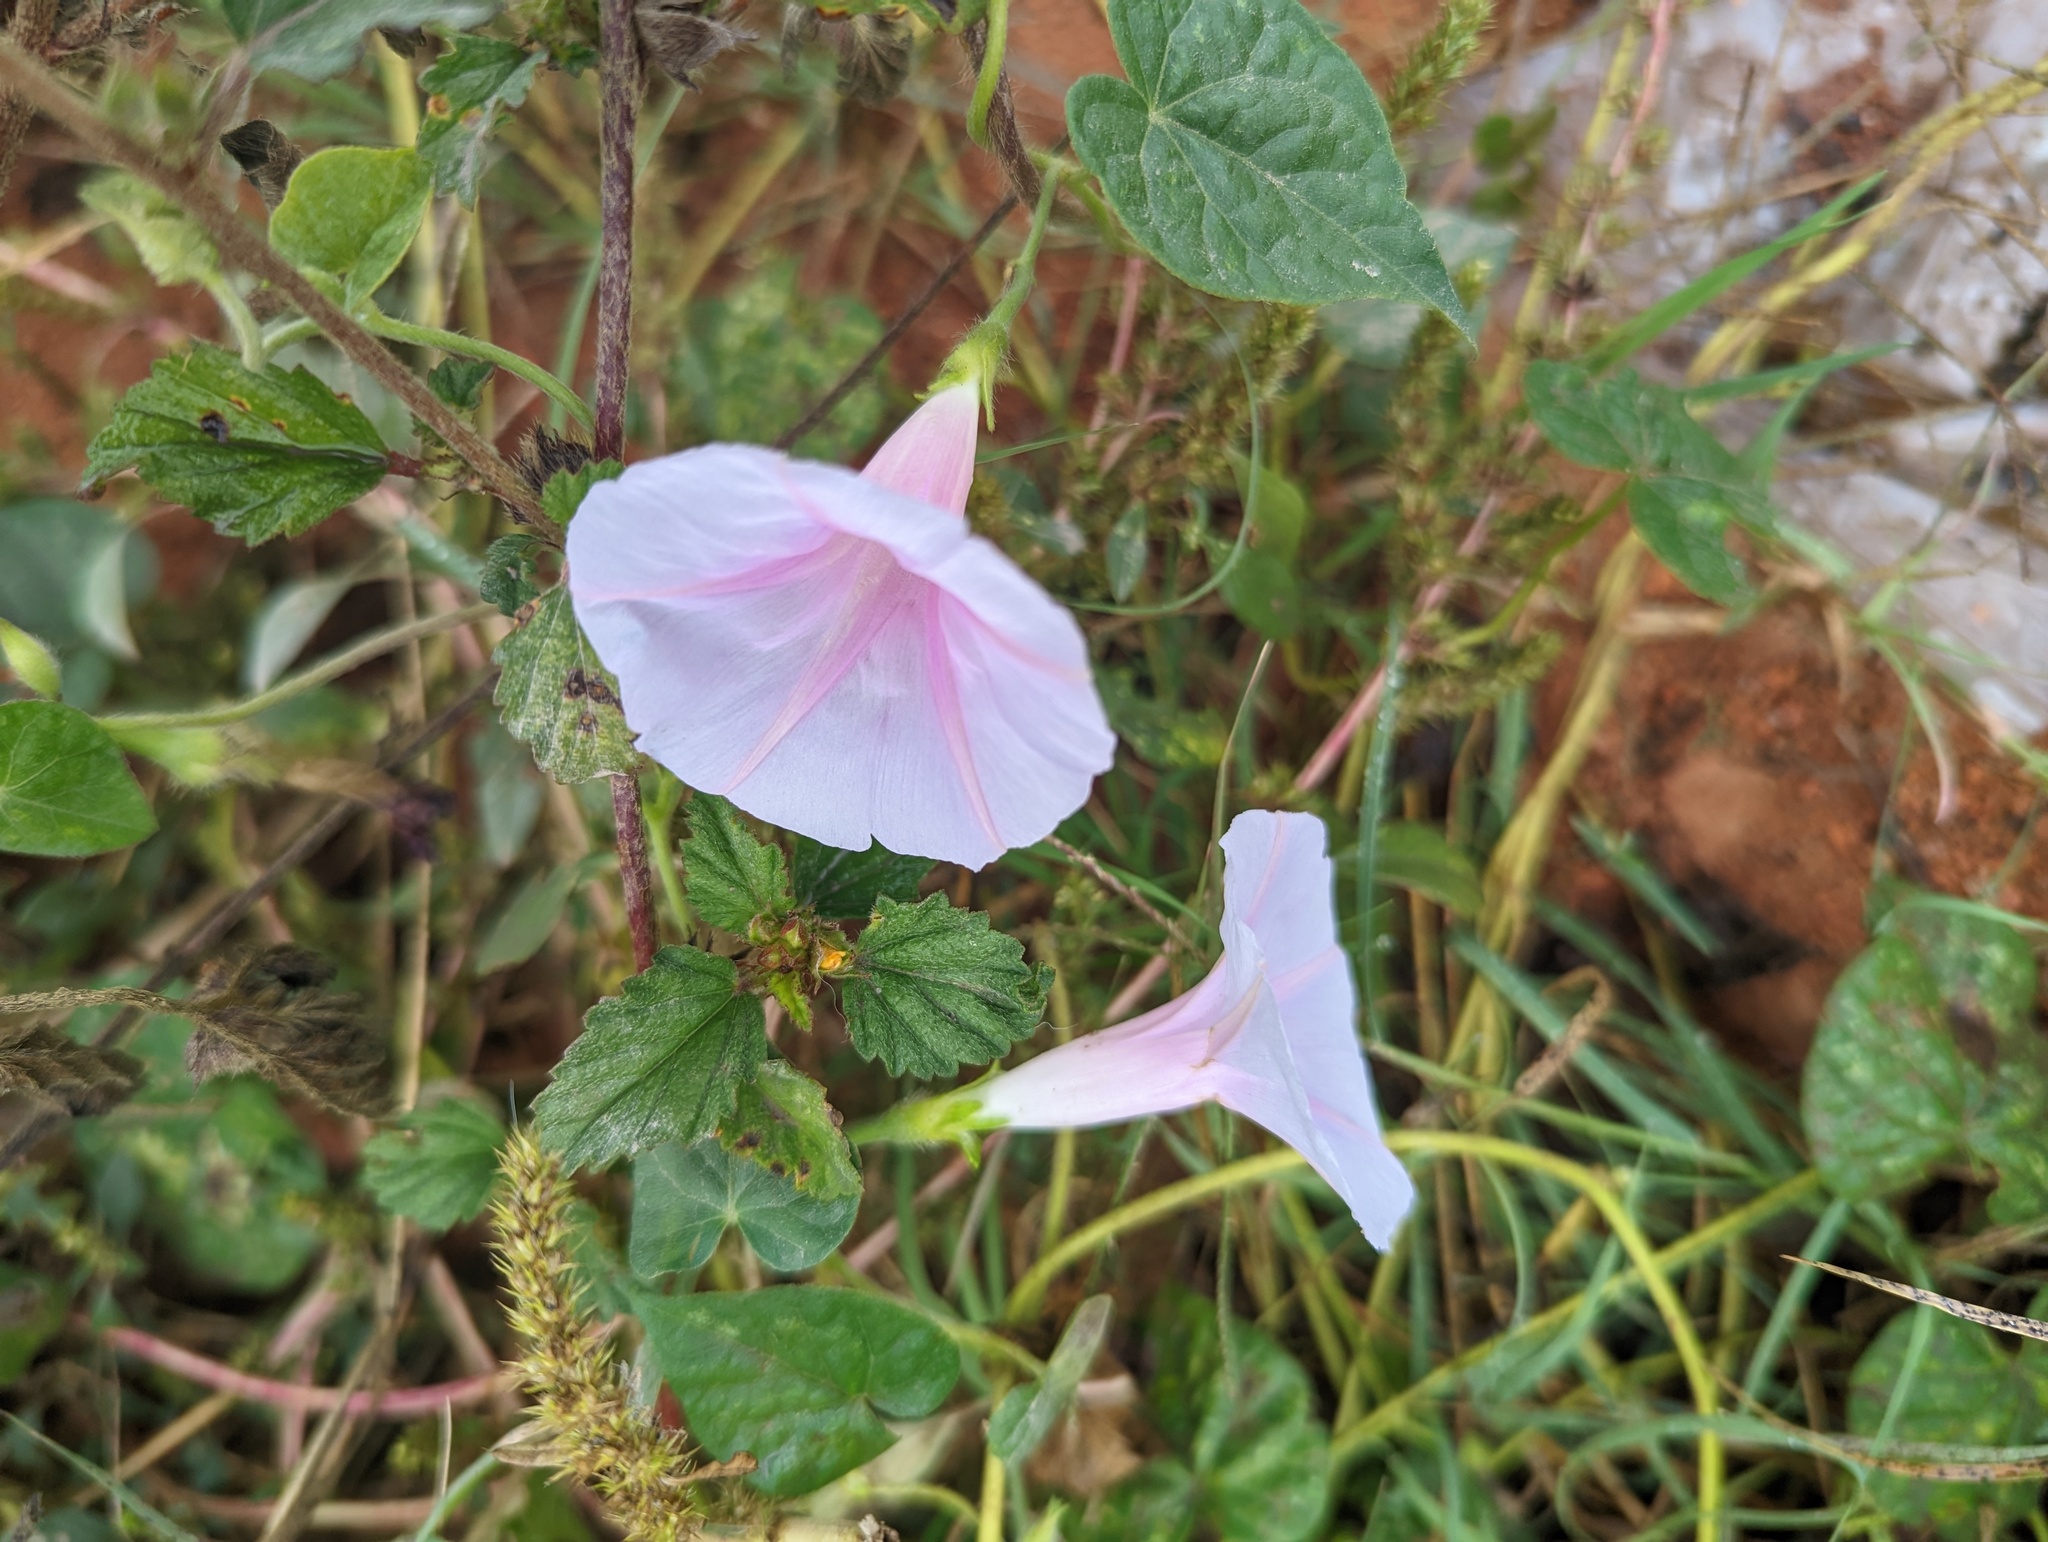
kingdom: Plantae
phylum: Tracheophyta
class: Magnoliopsida
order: Solanales
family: Convolvulaceae
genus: Ipomoea
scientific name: Ipomoea purpurea
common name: Common morning-glory
